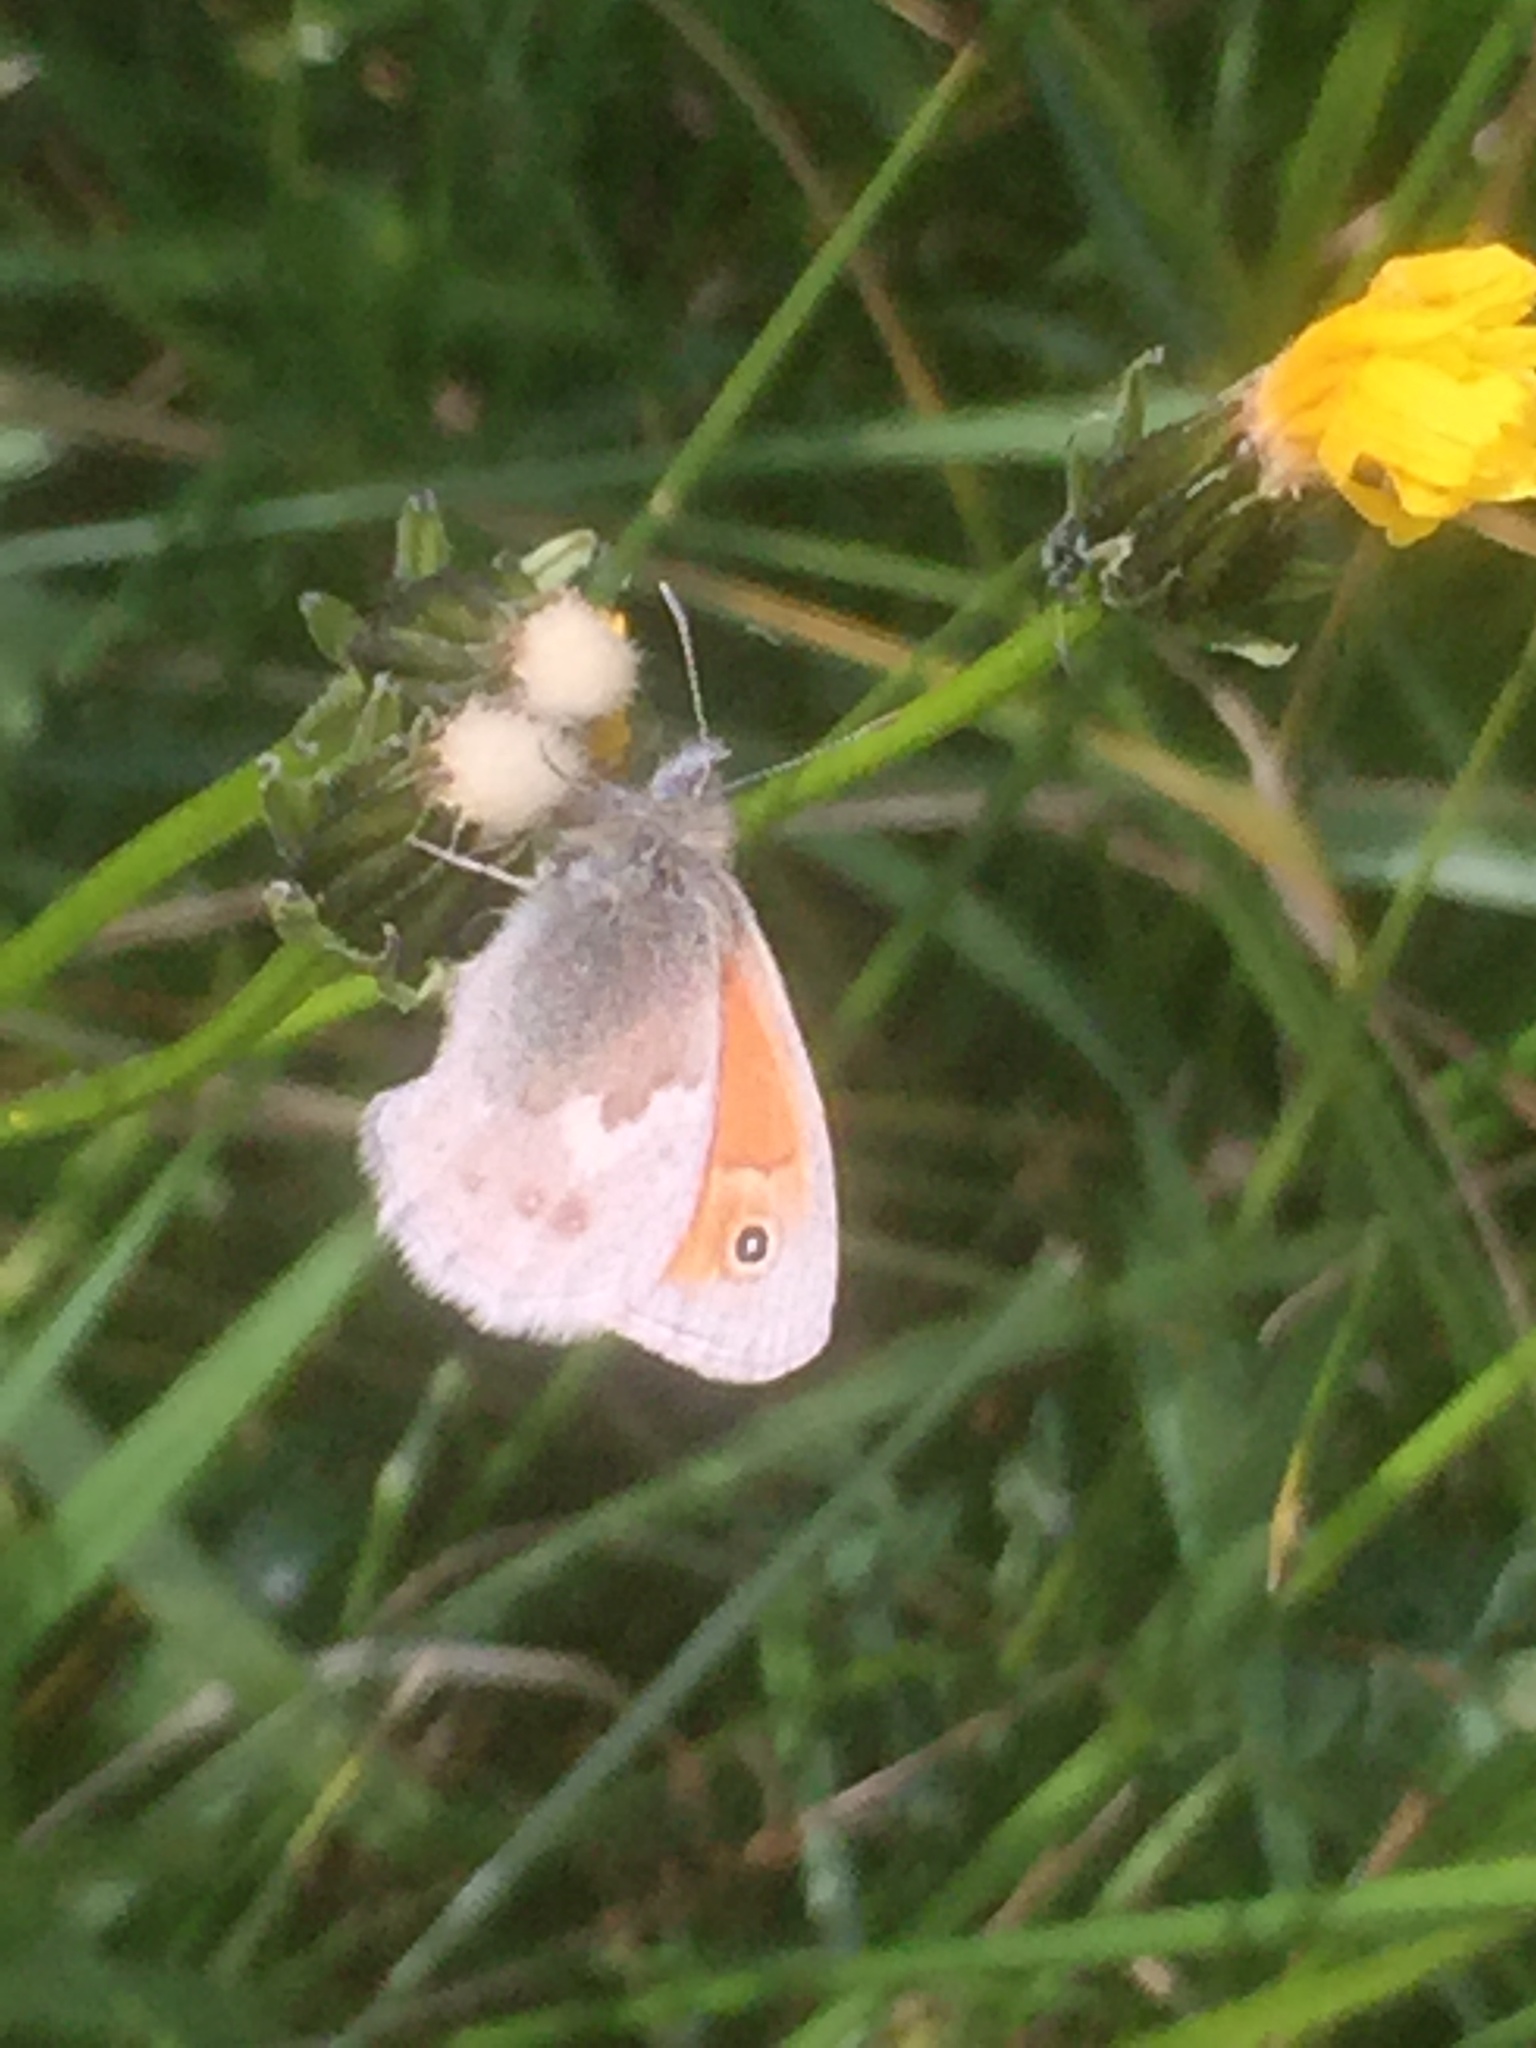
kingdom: Animalia
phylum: Arthropoda
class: Insecta
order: Lepidoptera
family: Nymphalidae
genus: Coenonympha
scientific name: Coenonympha pamphilus
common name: Small heath
